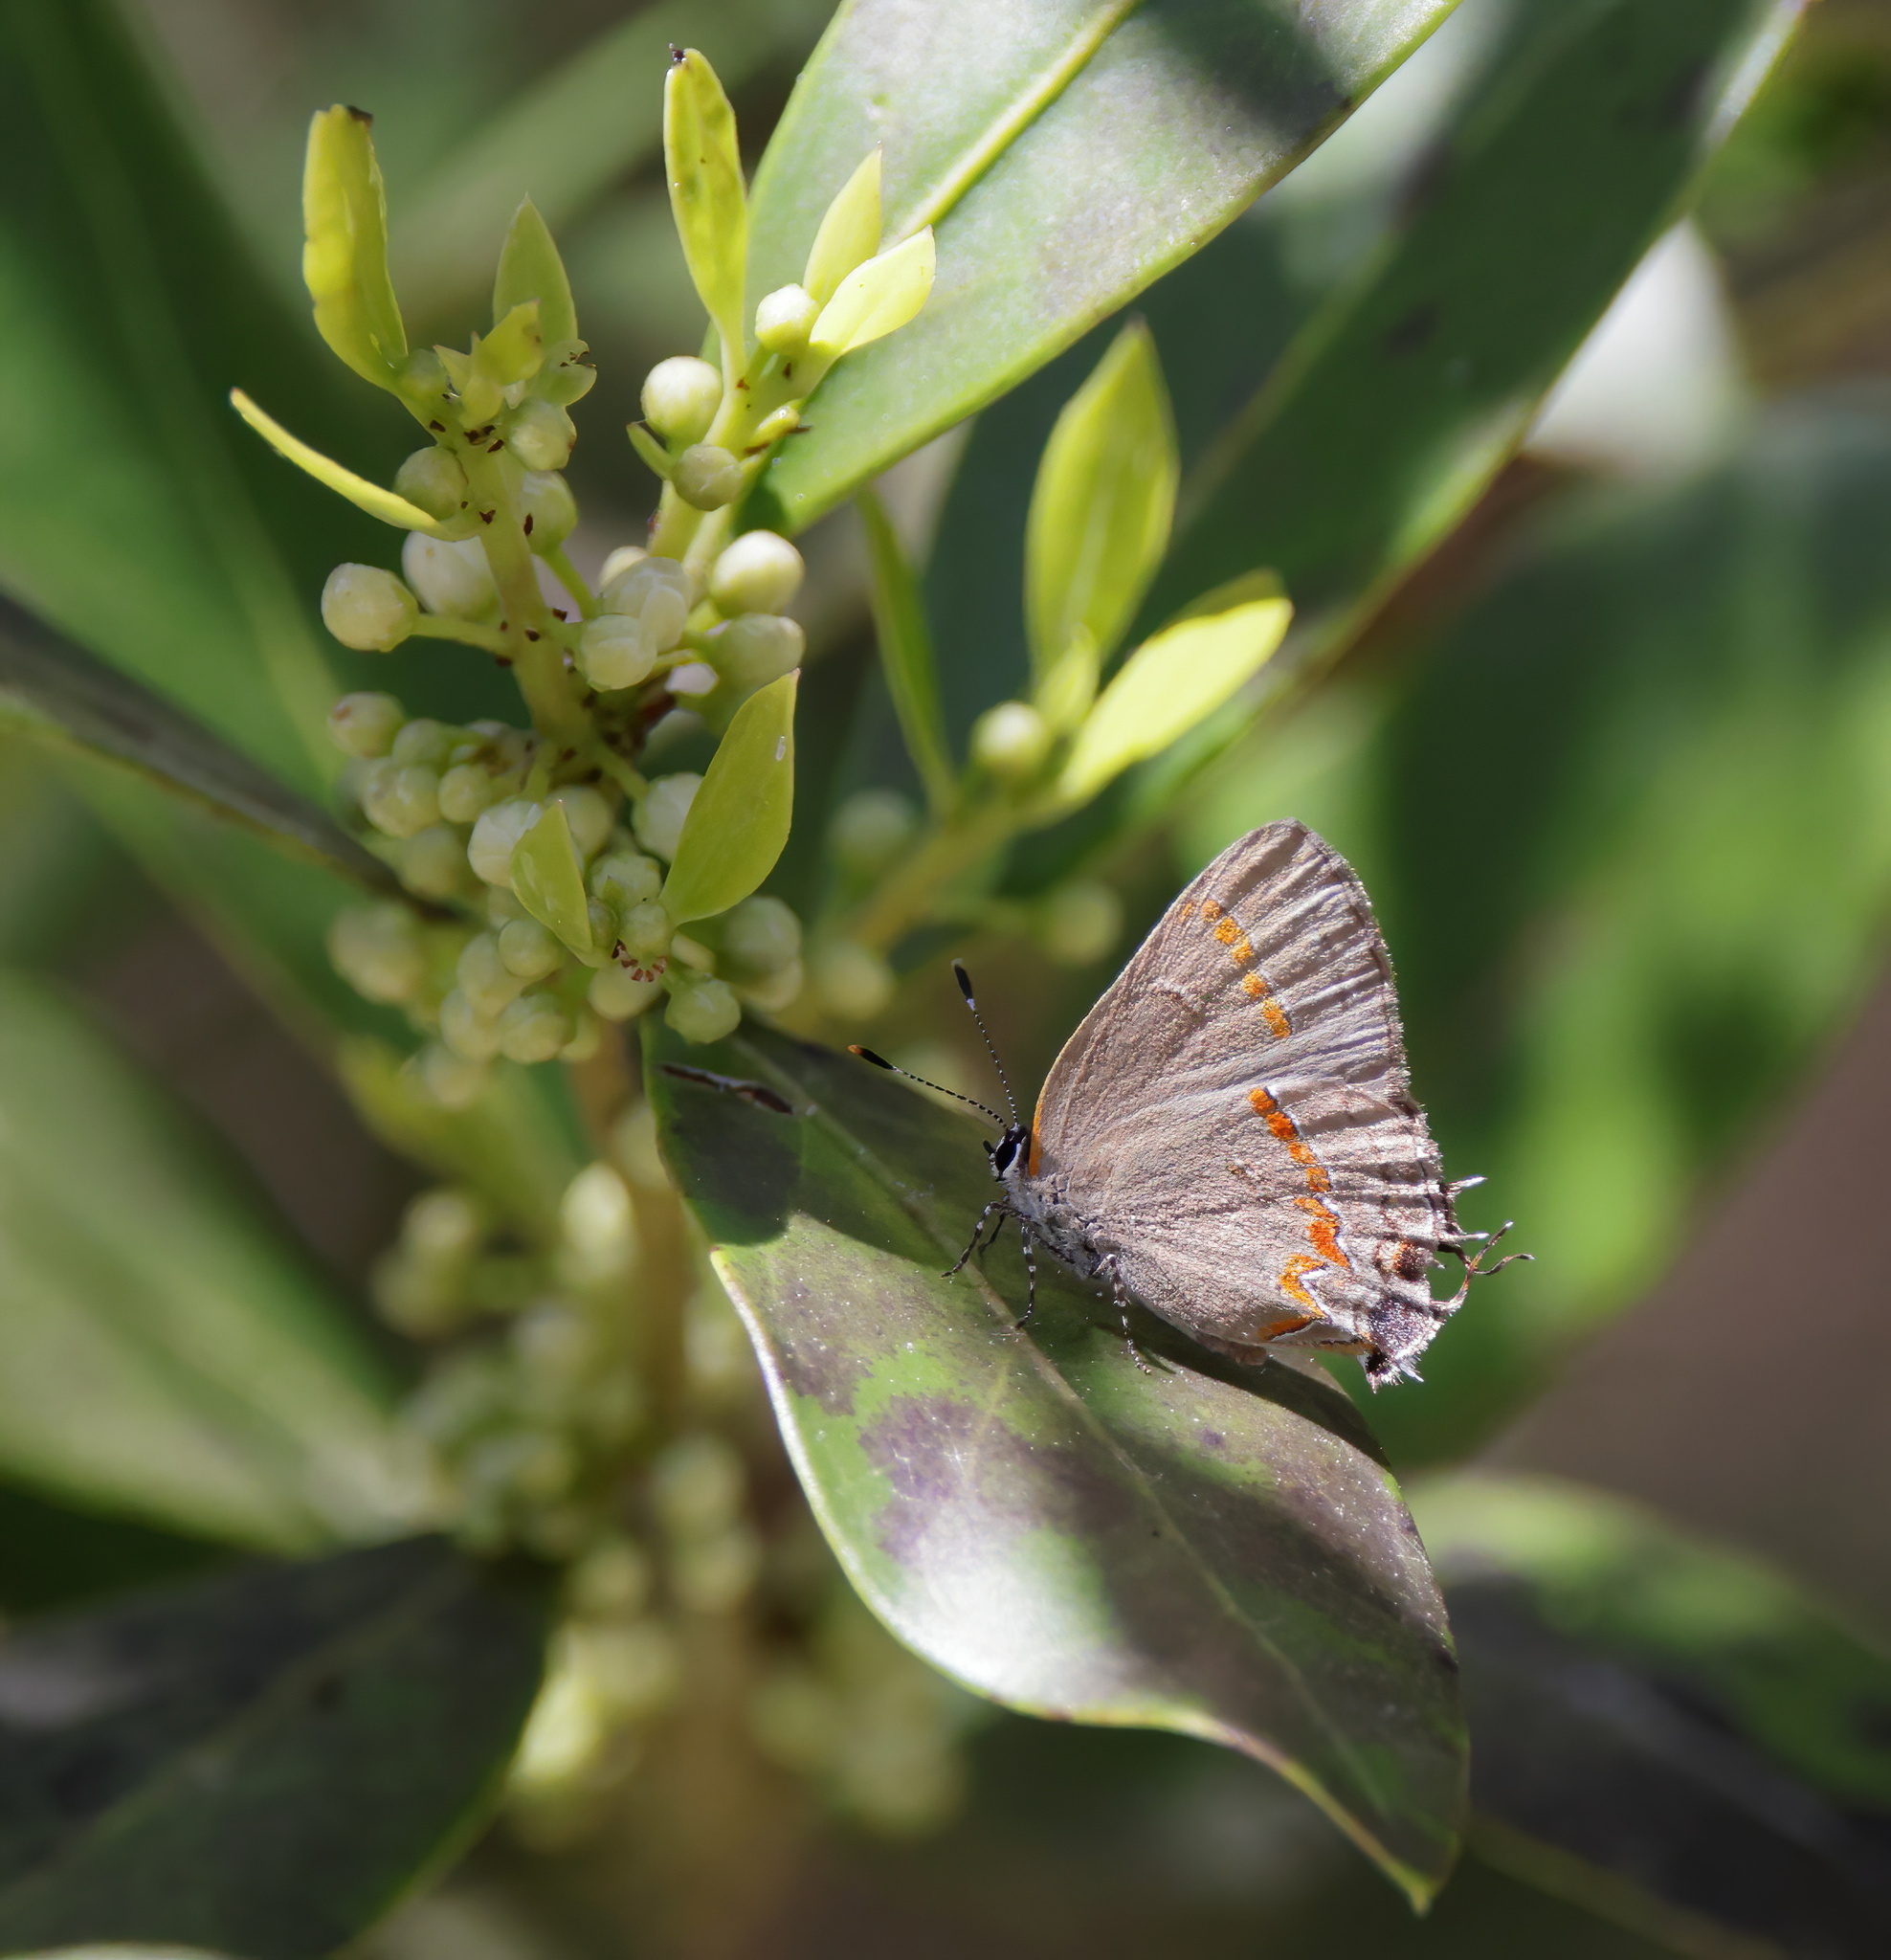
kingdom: Animalia
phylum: Arthropoda
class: Insecta
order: Lepidoptera
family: Lycaenidae
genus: Calycopis
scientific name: Calycopis cecrops
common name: Red-banded hairstreak
